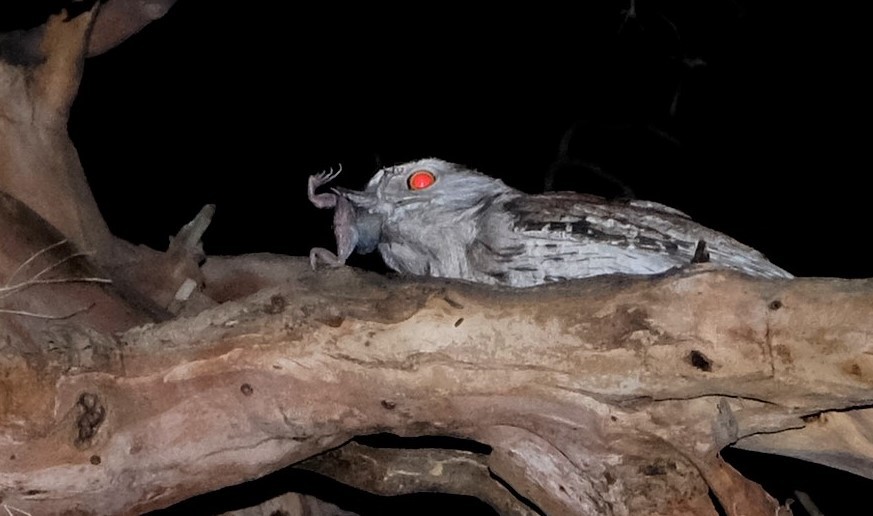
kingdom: Animalia
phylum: Chordata
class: Aves
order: Caprimulgiformes
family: Podargidae
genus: Podargus
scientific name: Podargus strigoides
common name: Tawny frogmouth
